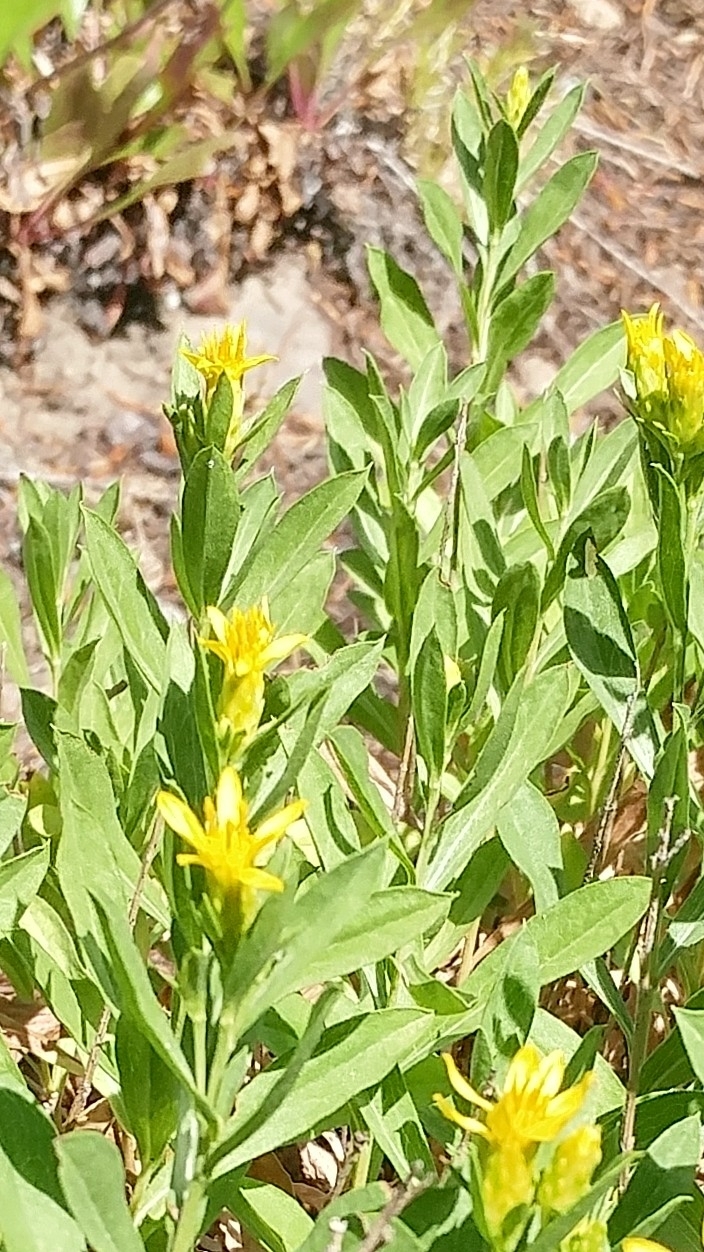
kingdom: Plantae
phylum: Tracheophyta
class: Magnoliopsida
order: Asterales
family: Asteraceae
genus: Columbiadoria
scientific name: Columbiadoria hallii
